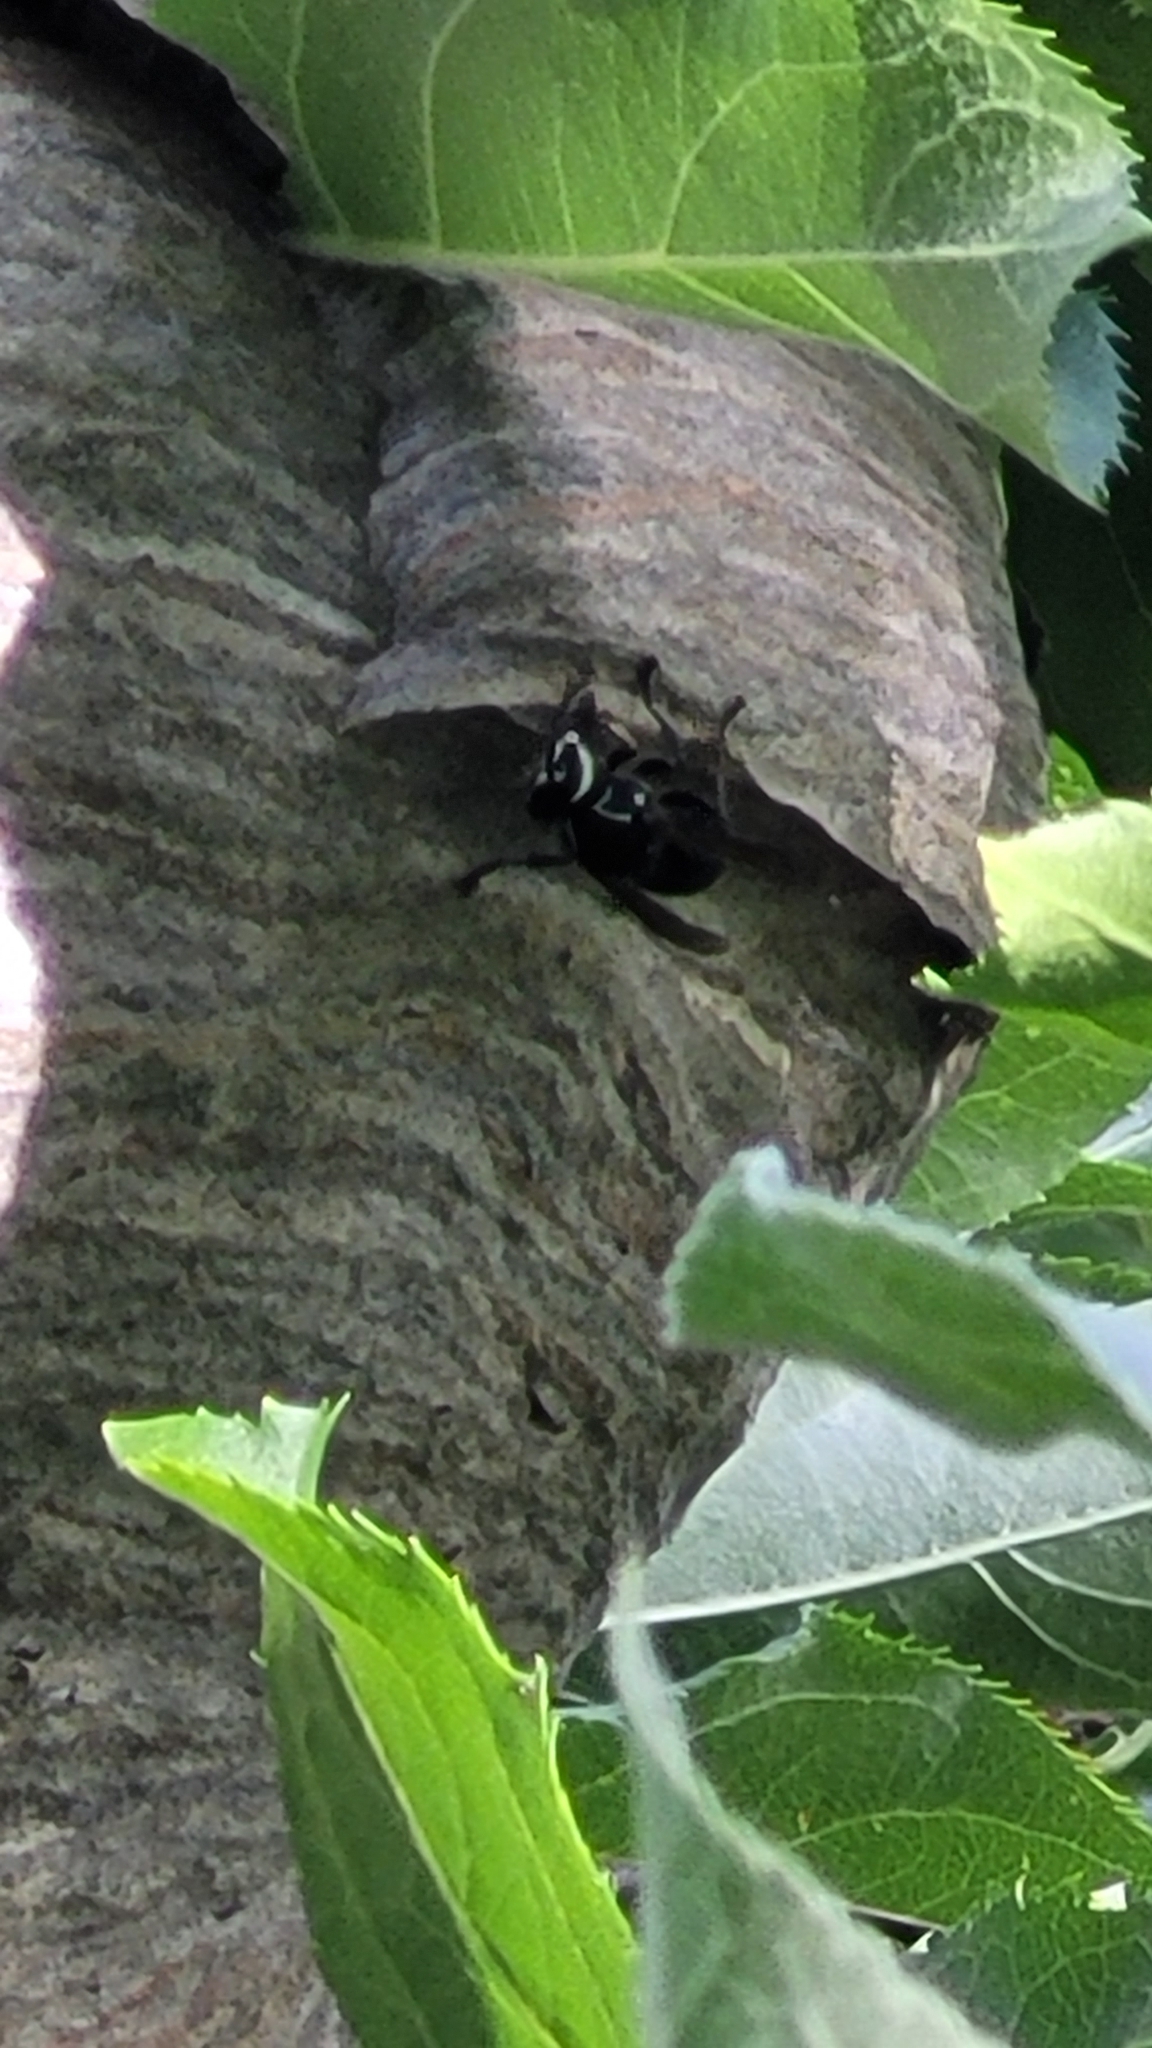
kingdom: Animalia
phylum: Arthropoda
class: Insecta
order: Hymenoptera
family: Vespidae
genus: Dolichovespula
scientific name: Dolichovespula maculata
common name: Bald-faced hornet
